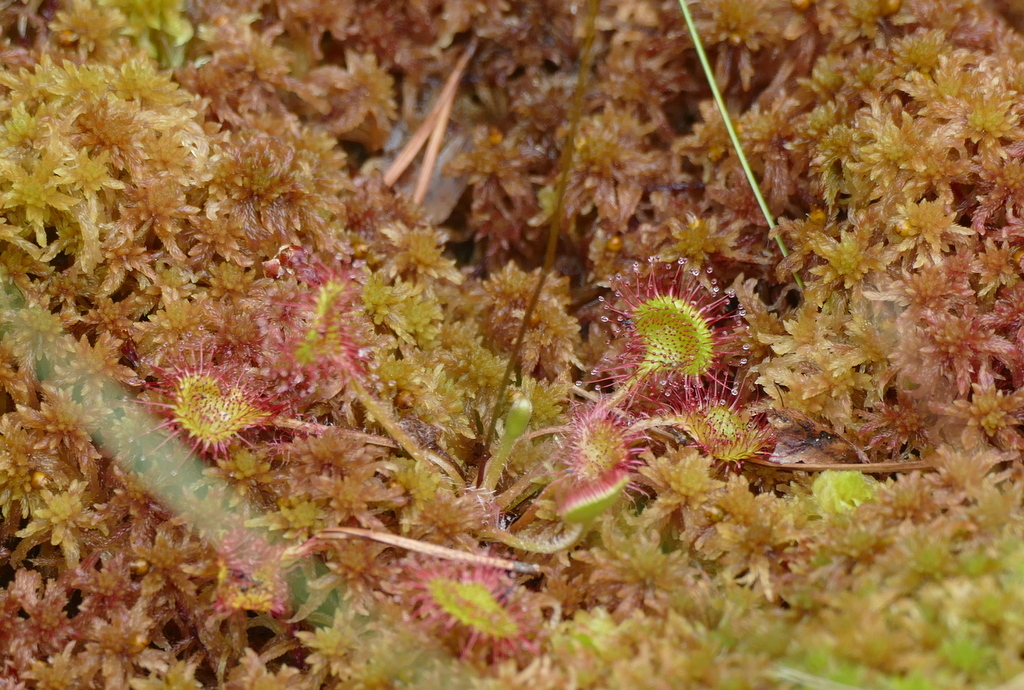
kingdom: Plantae
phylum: Tracheophyta
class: Magnoliopsida
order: Caryophyllales
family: Droseraceae
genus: Drosera
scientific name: Drosera rotundifolia
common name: Round-leaved sundew
